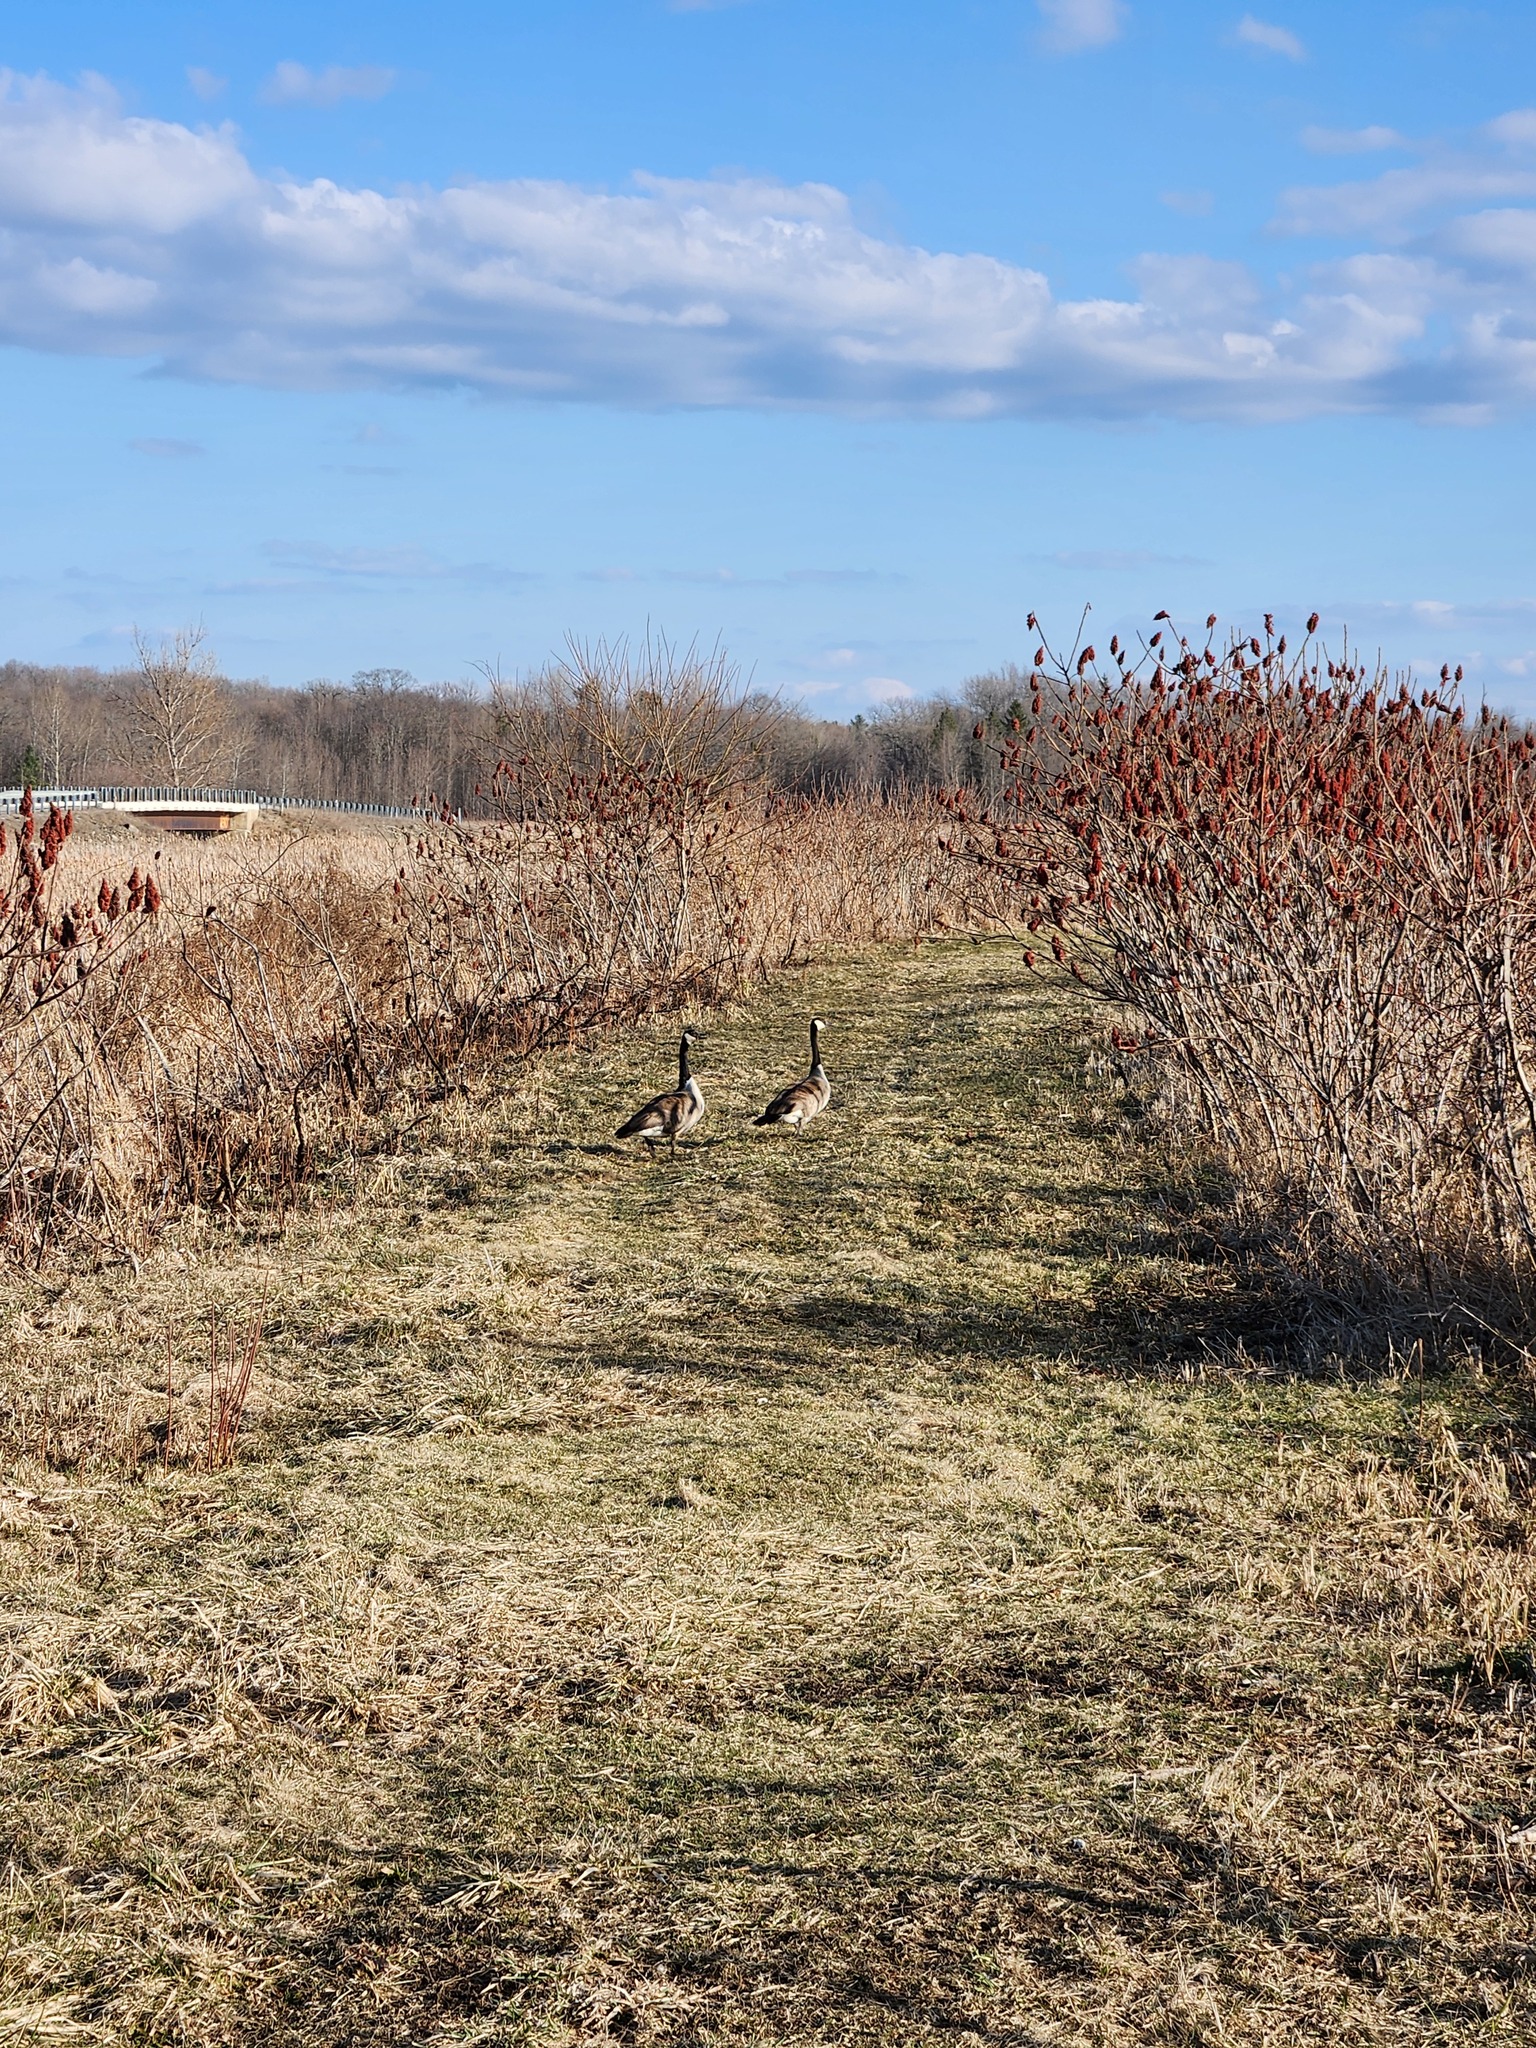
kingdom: Animalia
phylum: Chordata
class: Aves
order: Anseriformes
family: Anatidae
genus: Branta
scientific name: Branta canadensis
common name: Canada goose
